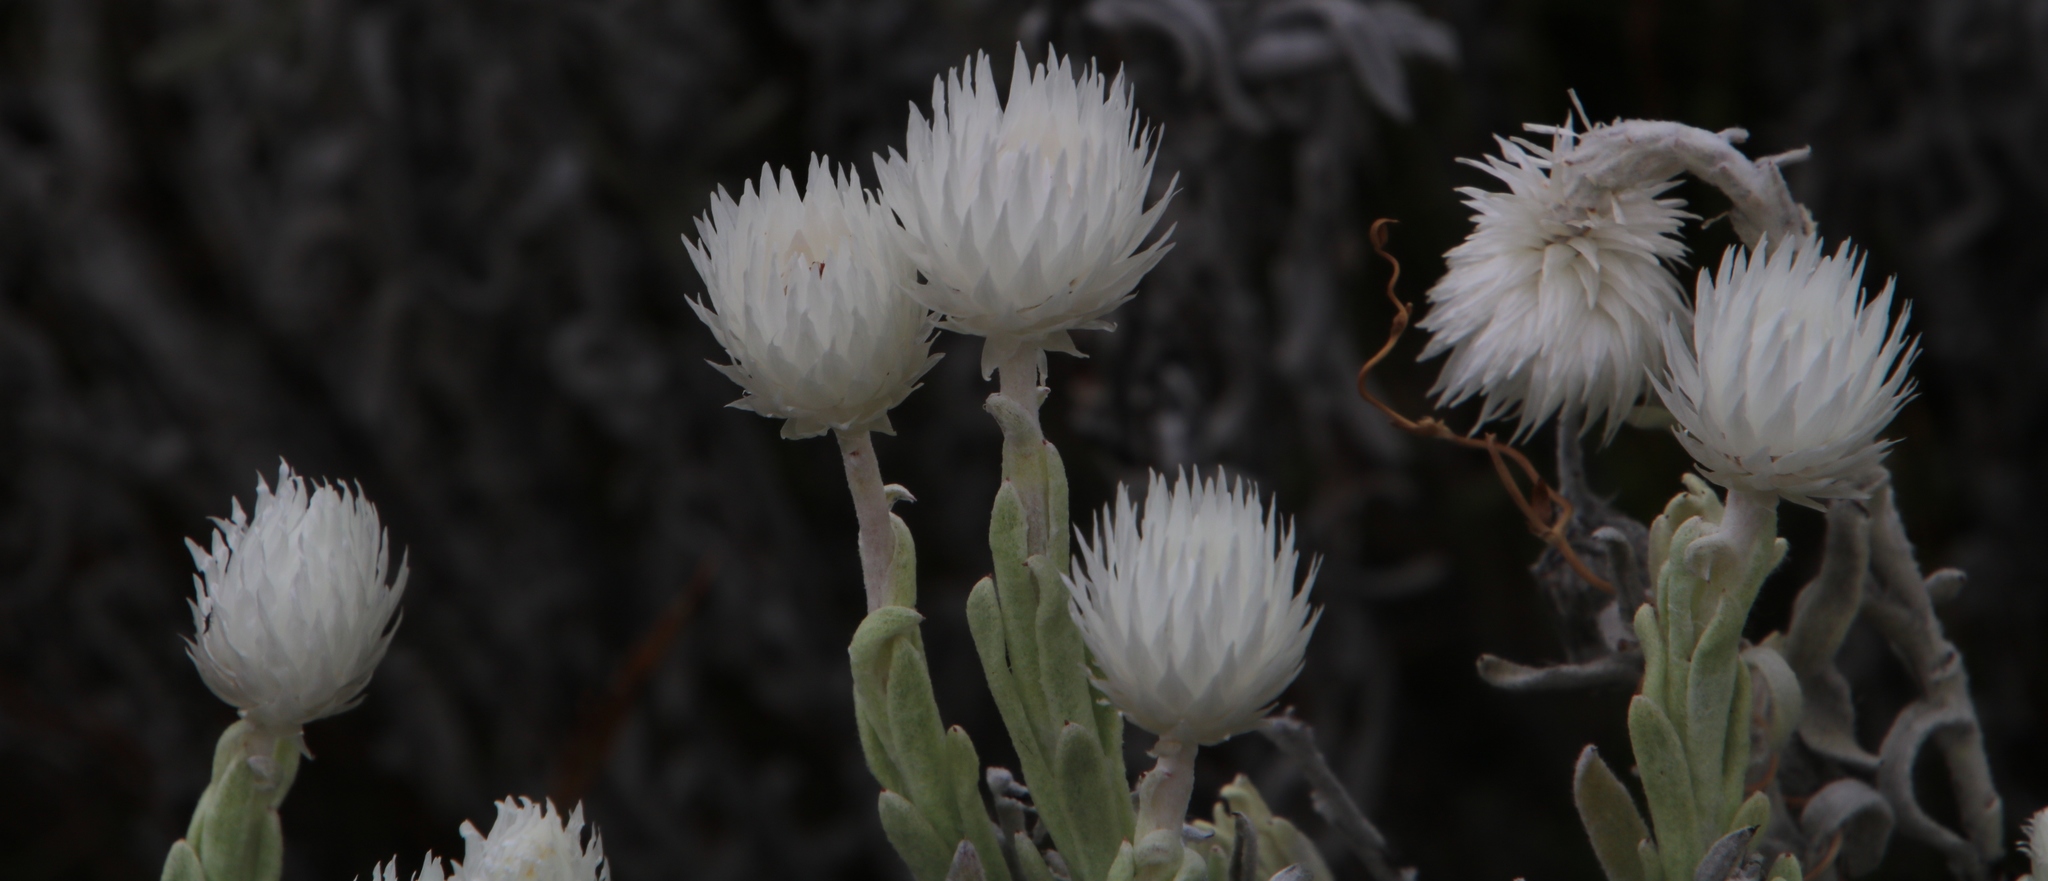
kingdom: Plantae
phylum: Tracheophyta
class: Magnoliopsida
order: Asterales
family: Asteraceae
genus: Syncarpha
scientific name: Syncarpha vestita
